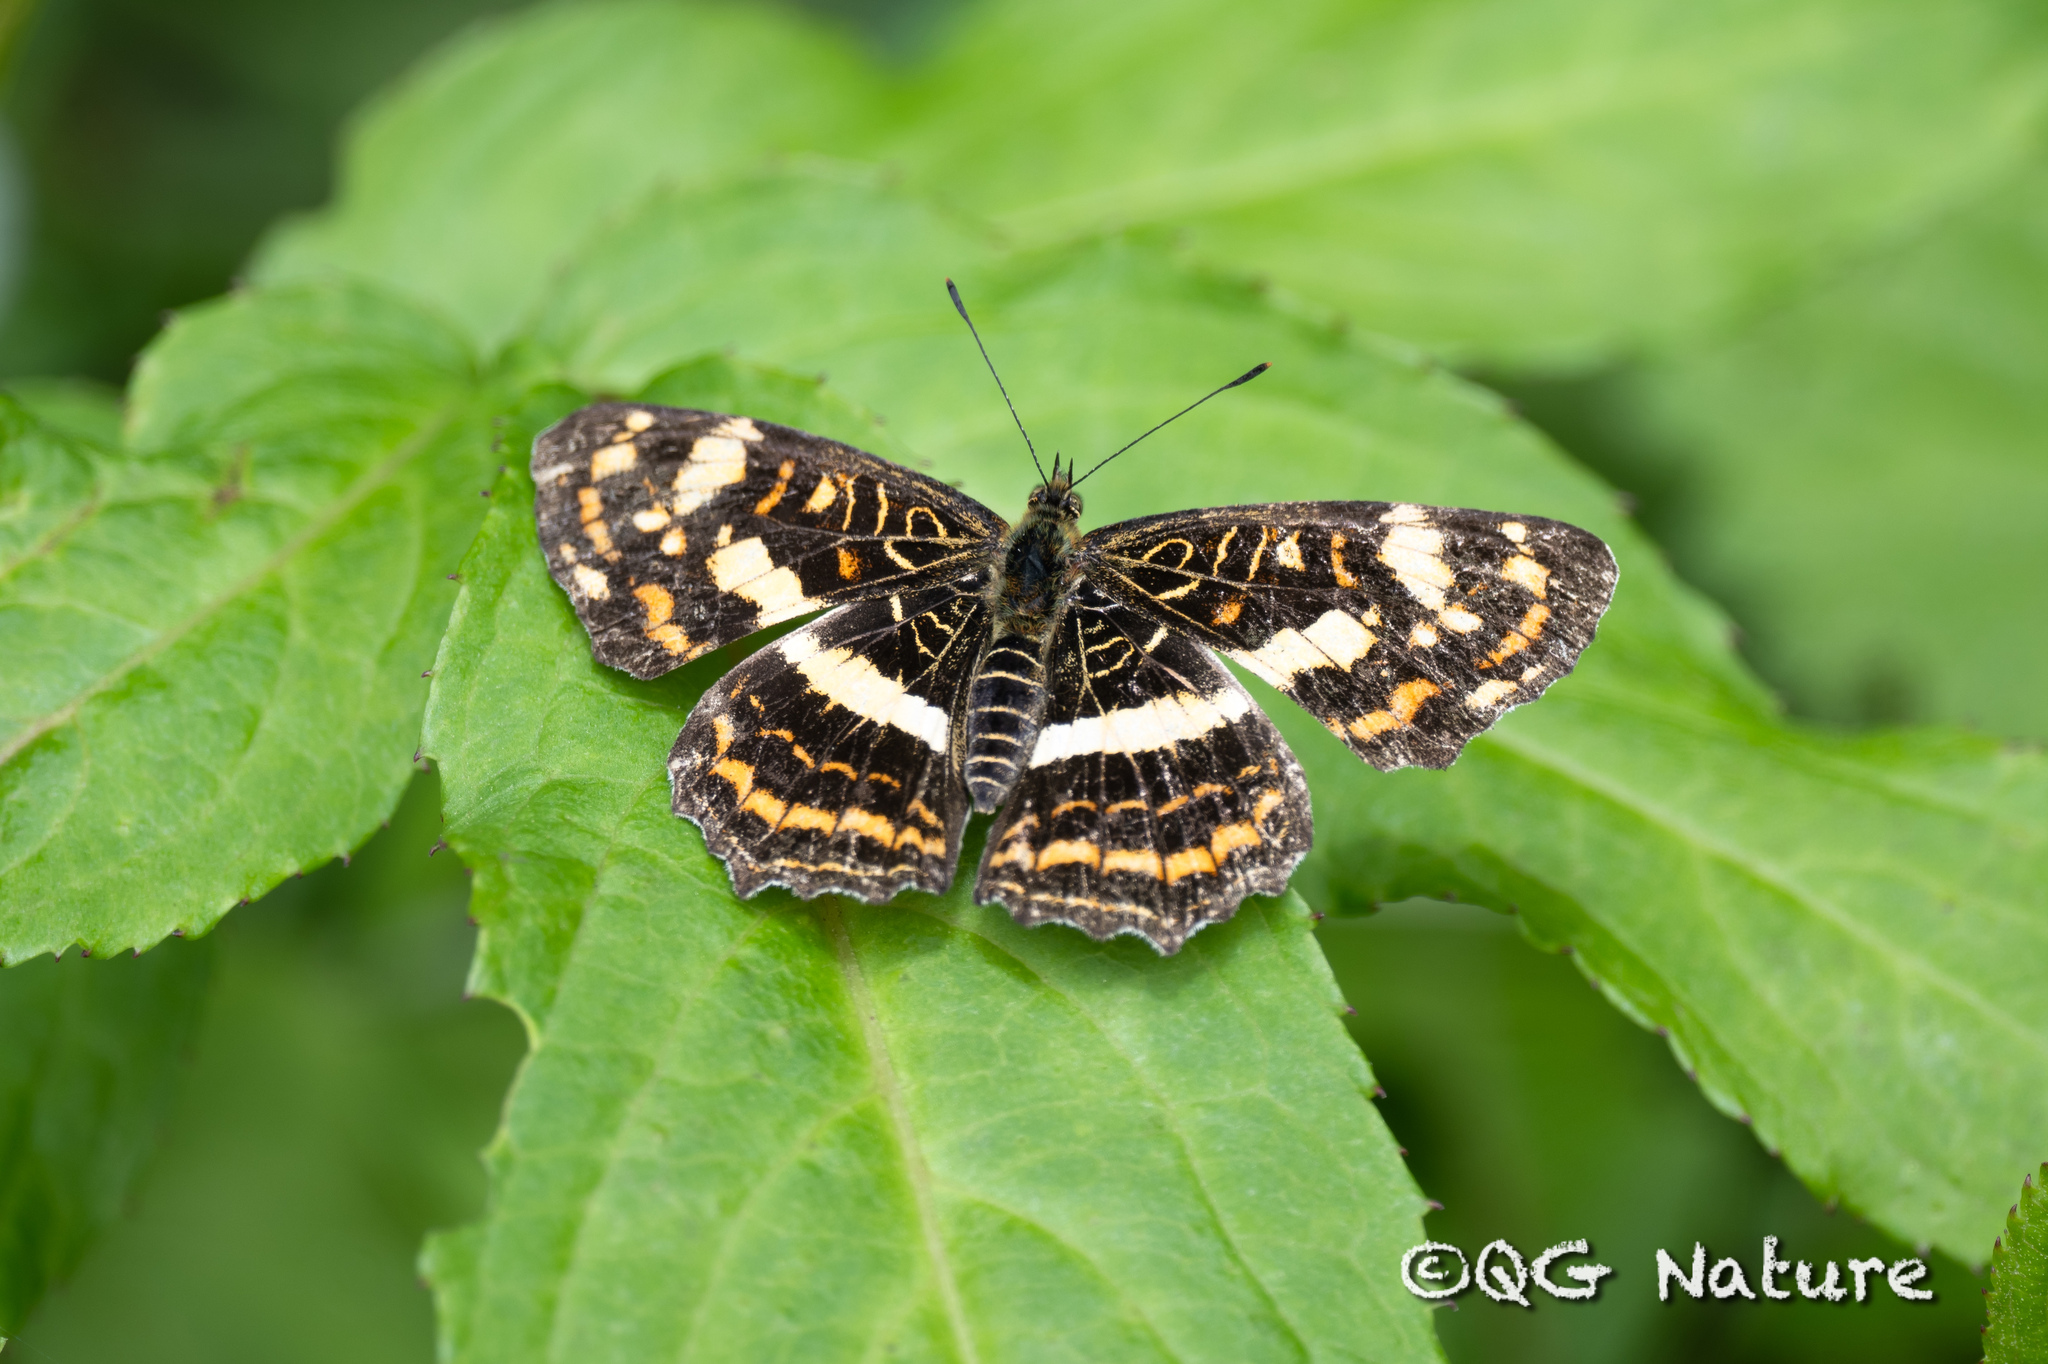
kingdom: Animalia
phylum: Arthropoda
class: Insecta
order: Lepidoptera
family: Nymphalidae
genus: Araschnia
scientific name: Araschnia prorsoides
